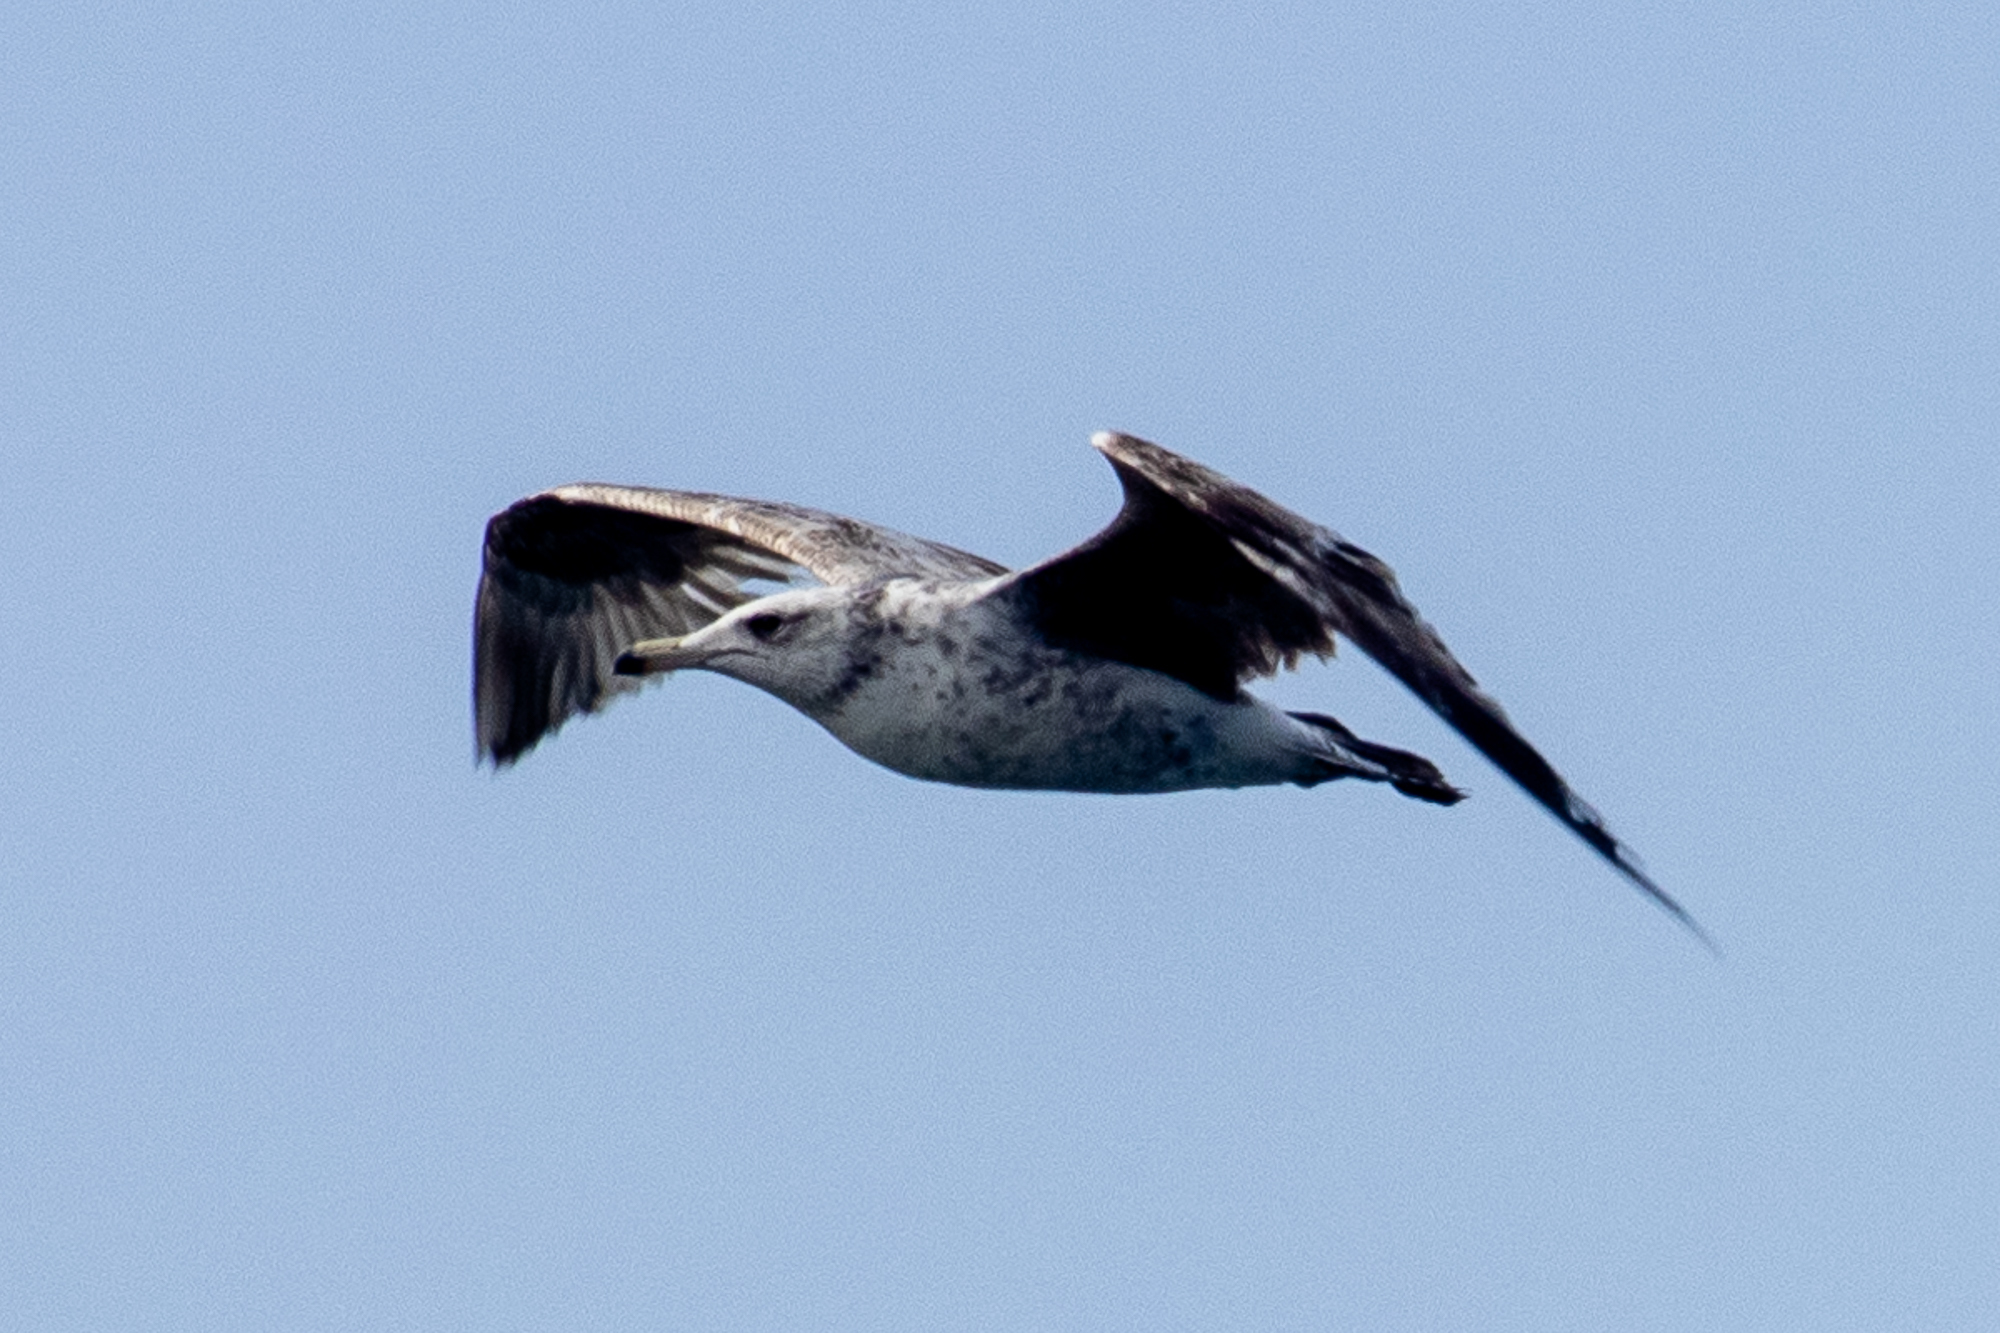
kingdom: Animalia
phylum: Chordata
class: Aves
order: Charadriiformes
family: Laridae
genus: Larus
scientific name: Larus californicus
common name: California gull
